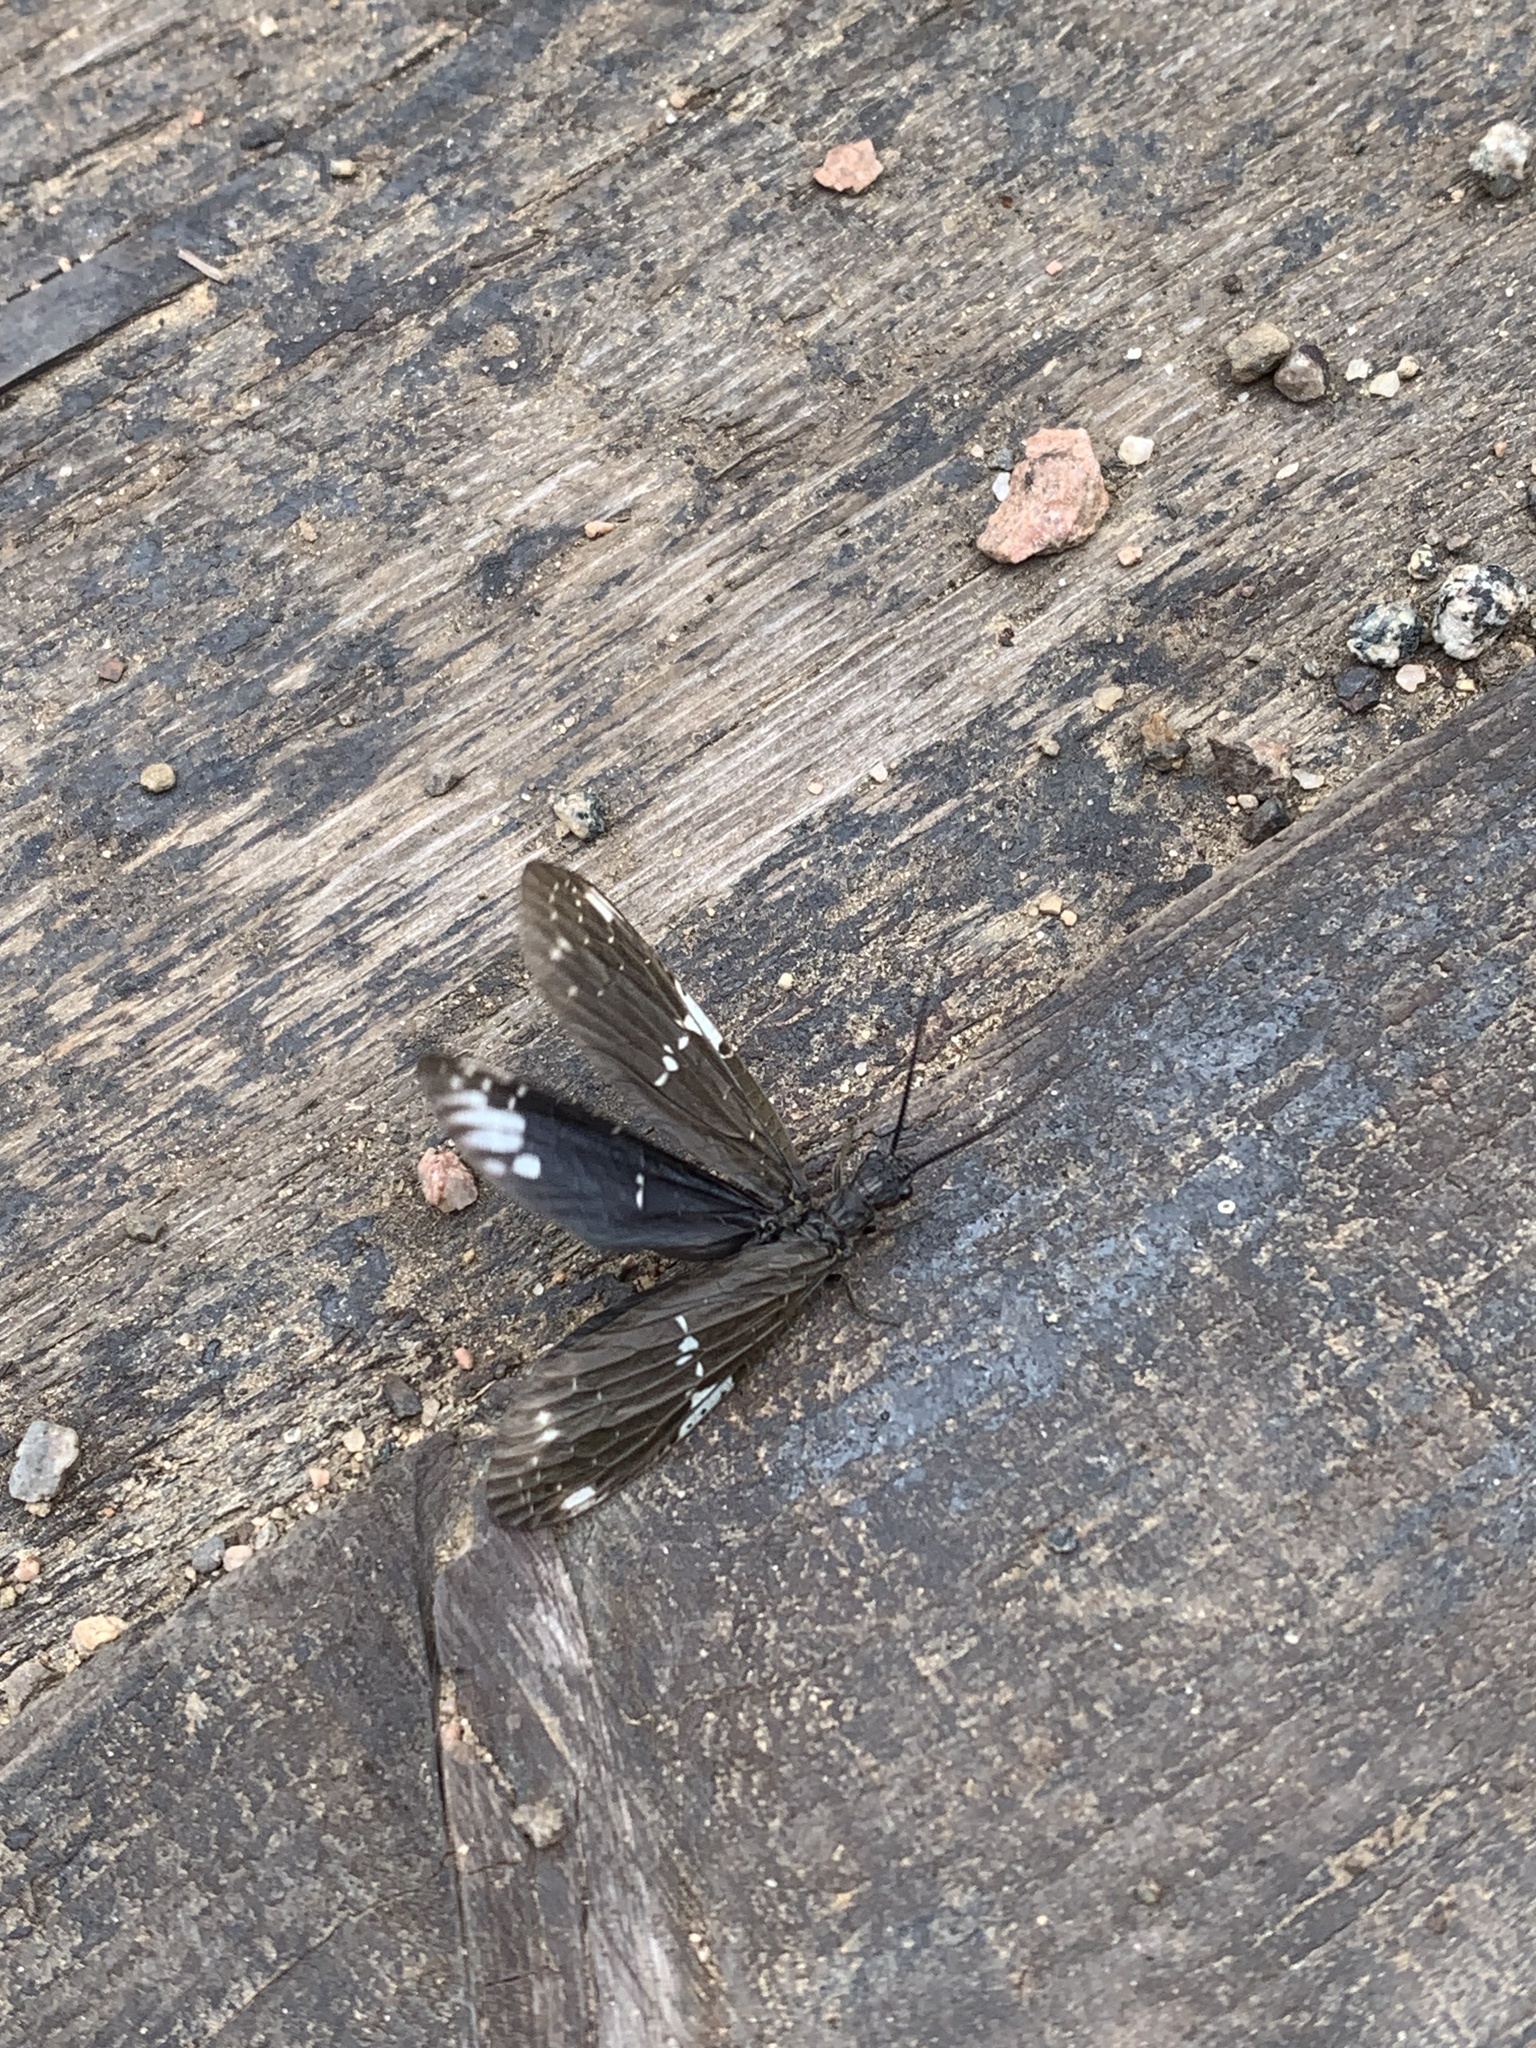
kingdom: Animalia
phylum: Arthropoda
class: Insecta
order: Megaloptera
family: Corydalidae
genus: Nigronia
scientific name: Nigronia serricornis
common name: Serrate dark fishfly
